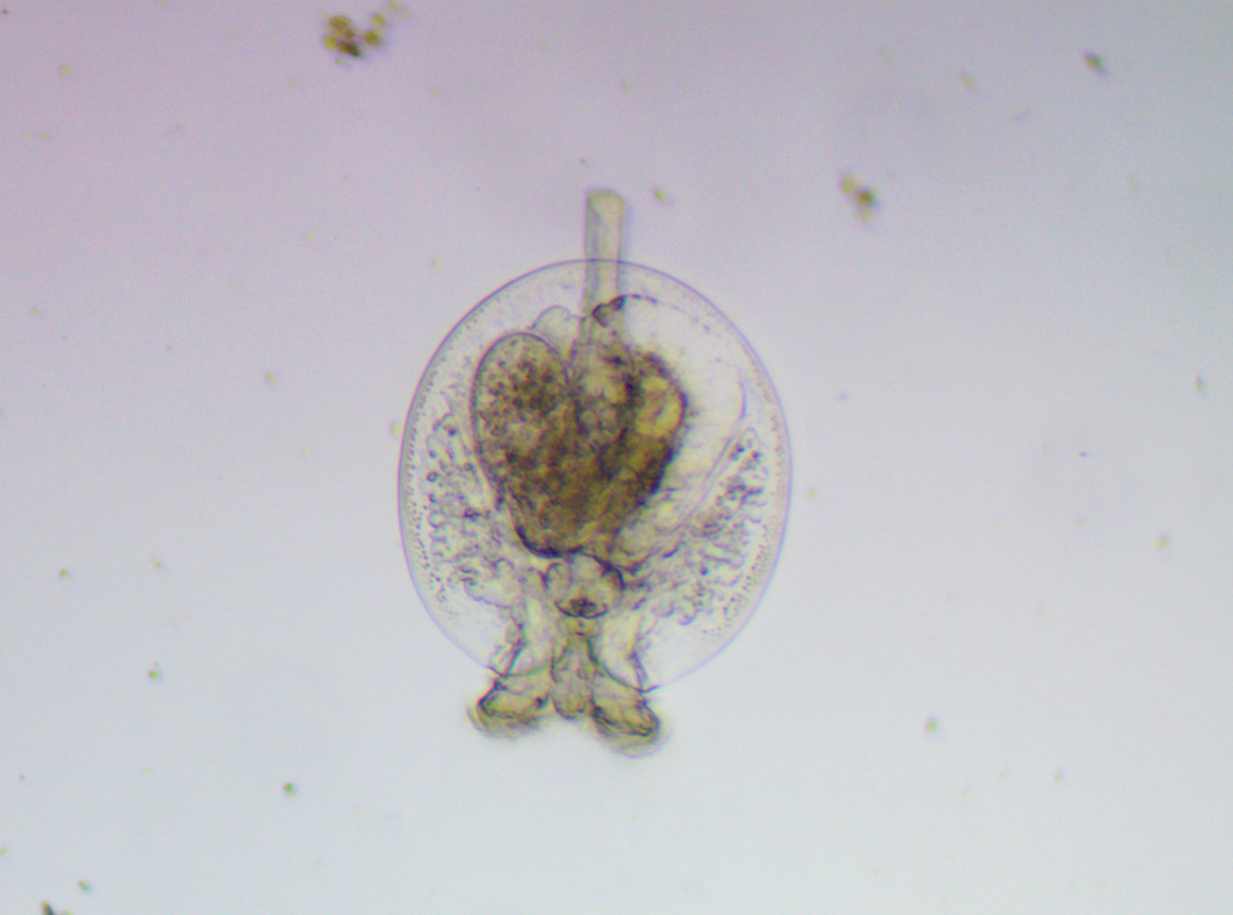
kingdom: Animalia
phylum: Rotifera
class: Eurotatoria
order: Flosculariaceae
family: Testudinellidae
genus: Testudinella
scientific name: Testudinella patina
